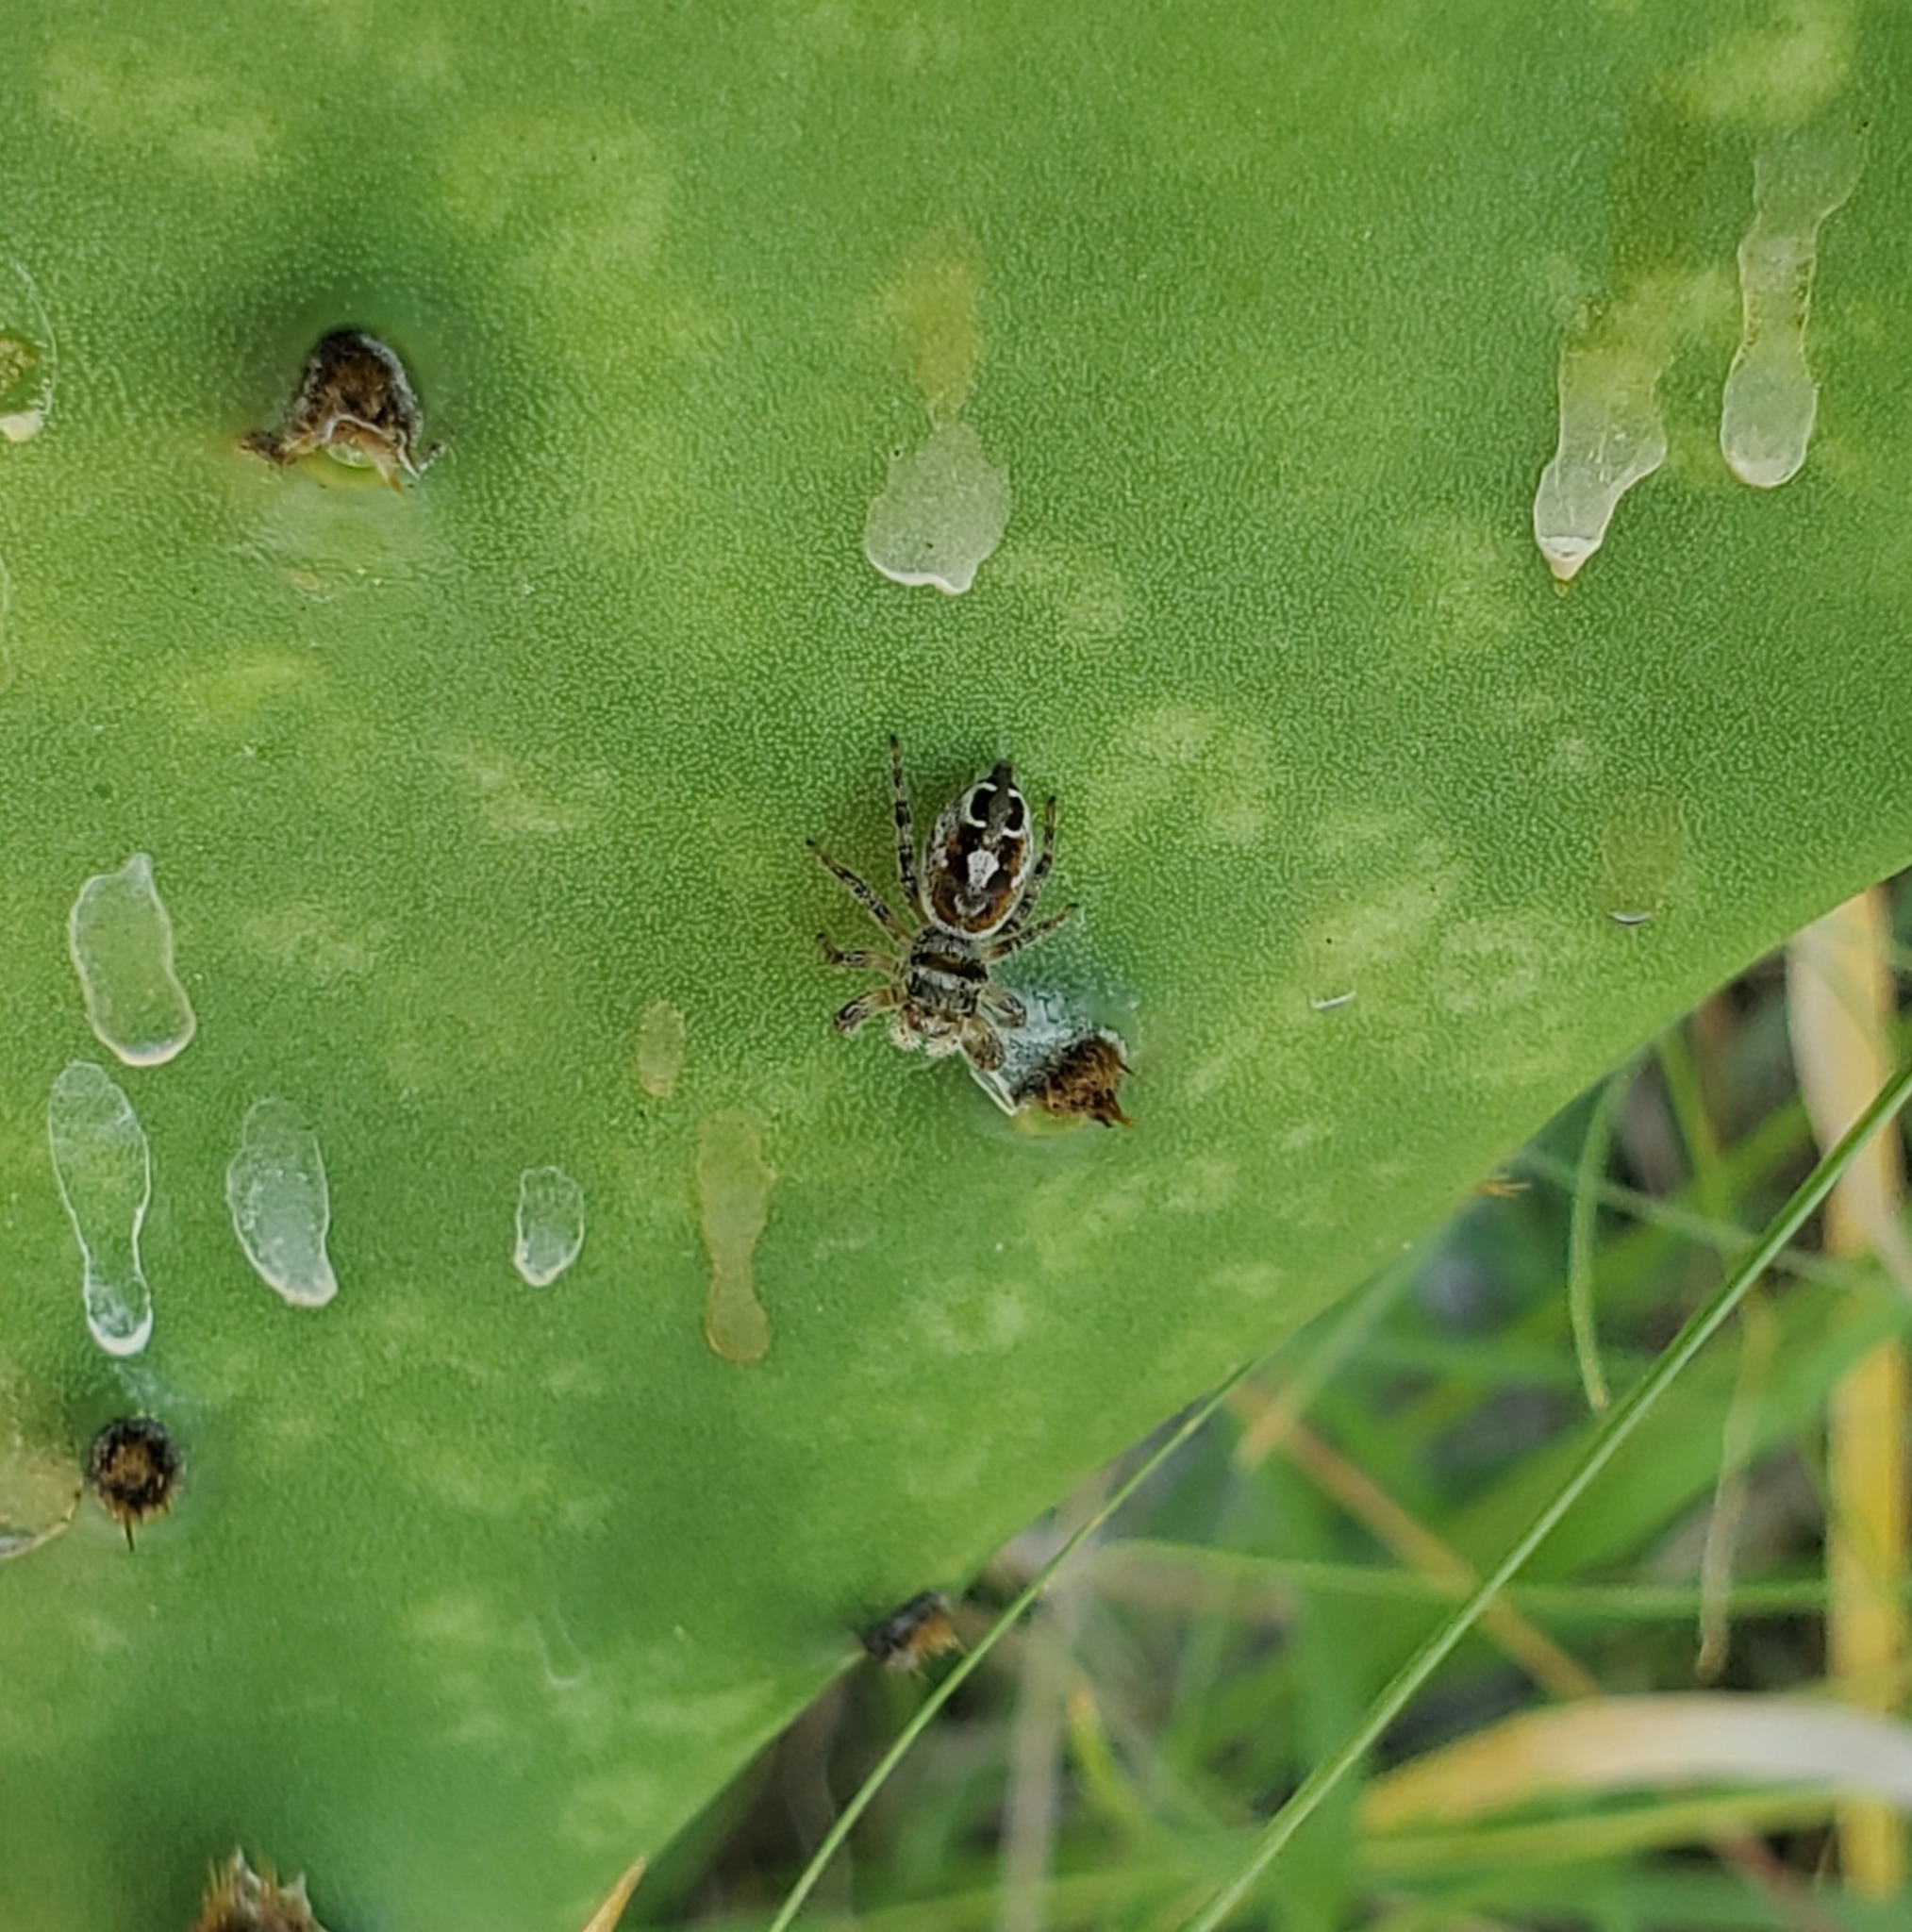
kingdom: Animalia
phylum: Arthropoda
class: Arachnida
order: Araneae
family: Salticidae
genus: Phidippus
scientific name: Phidippus arizonensis
